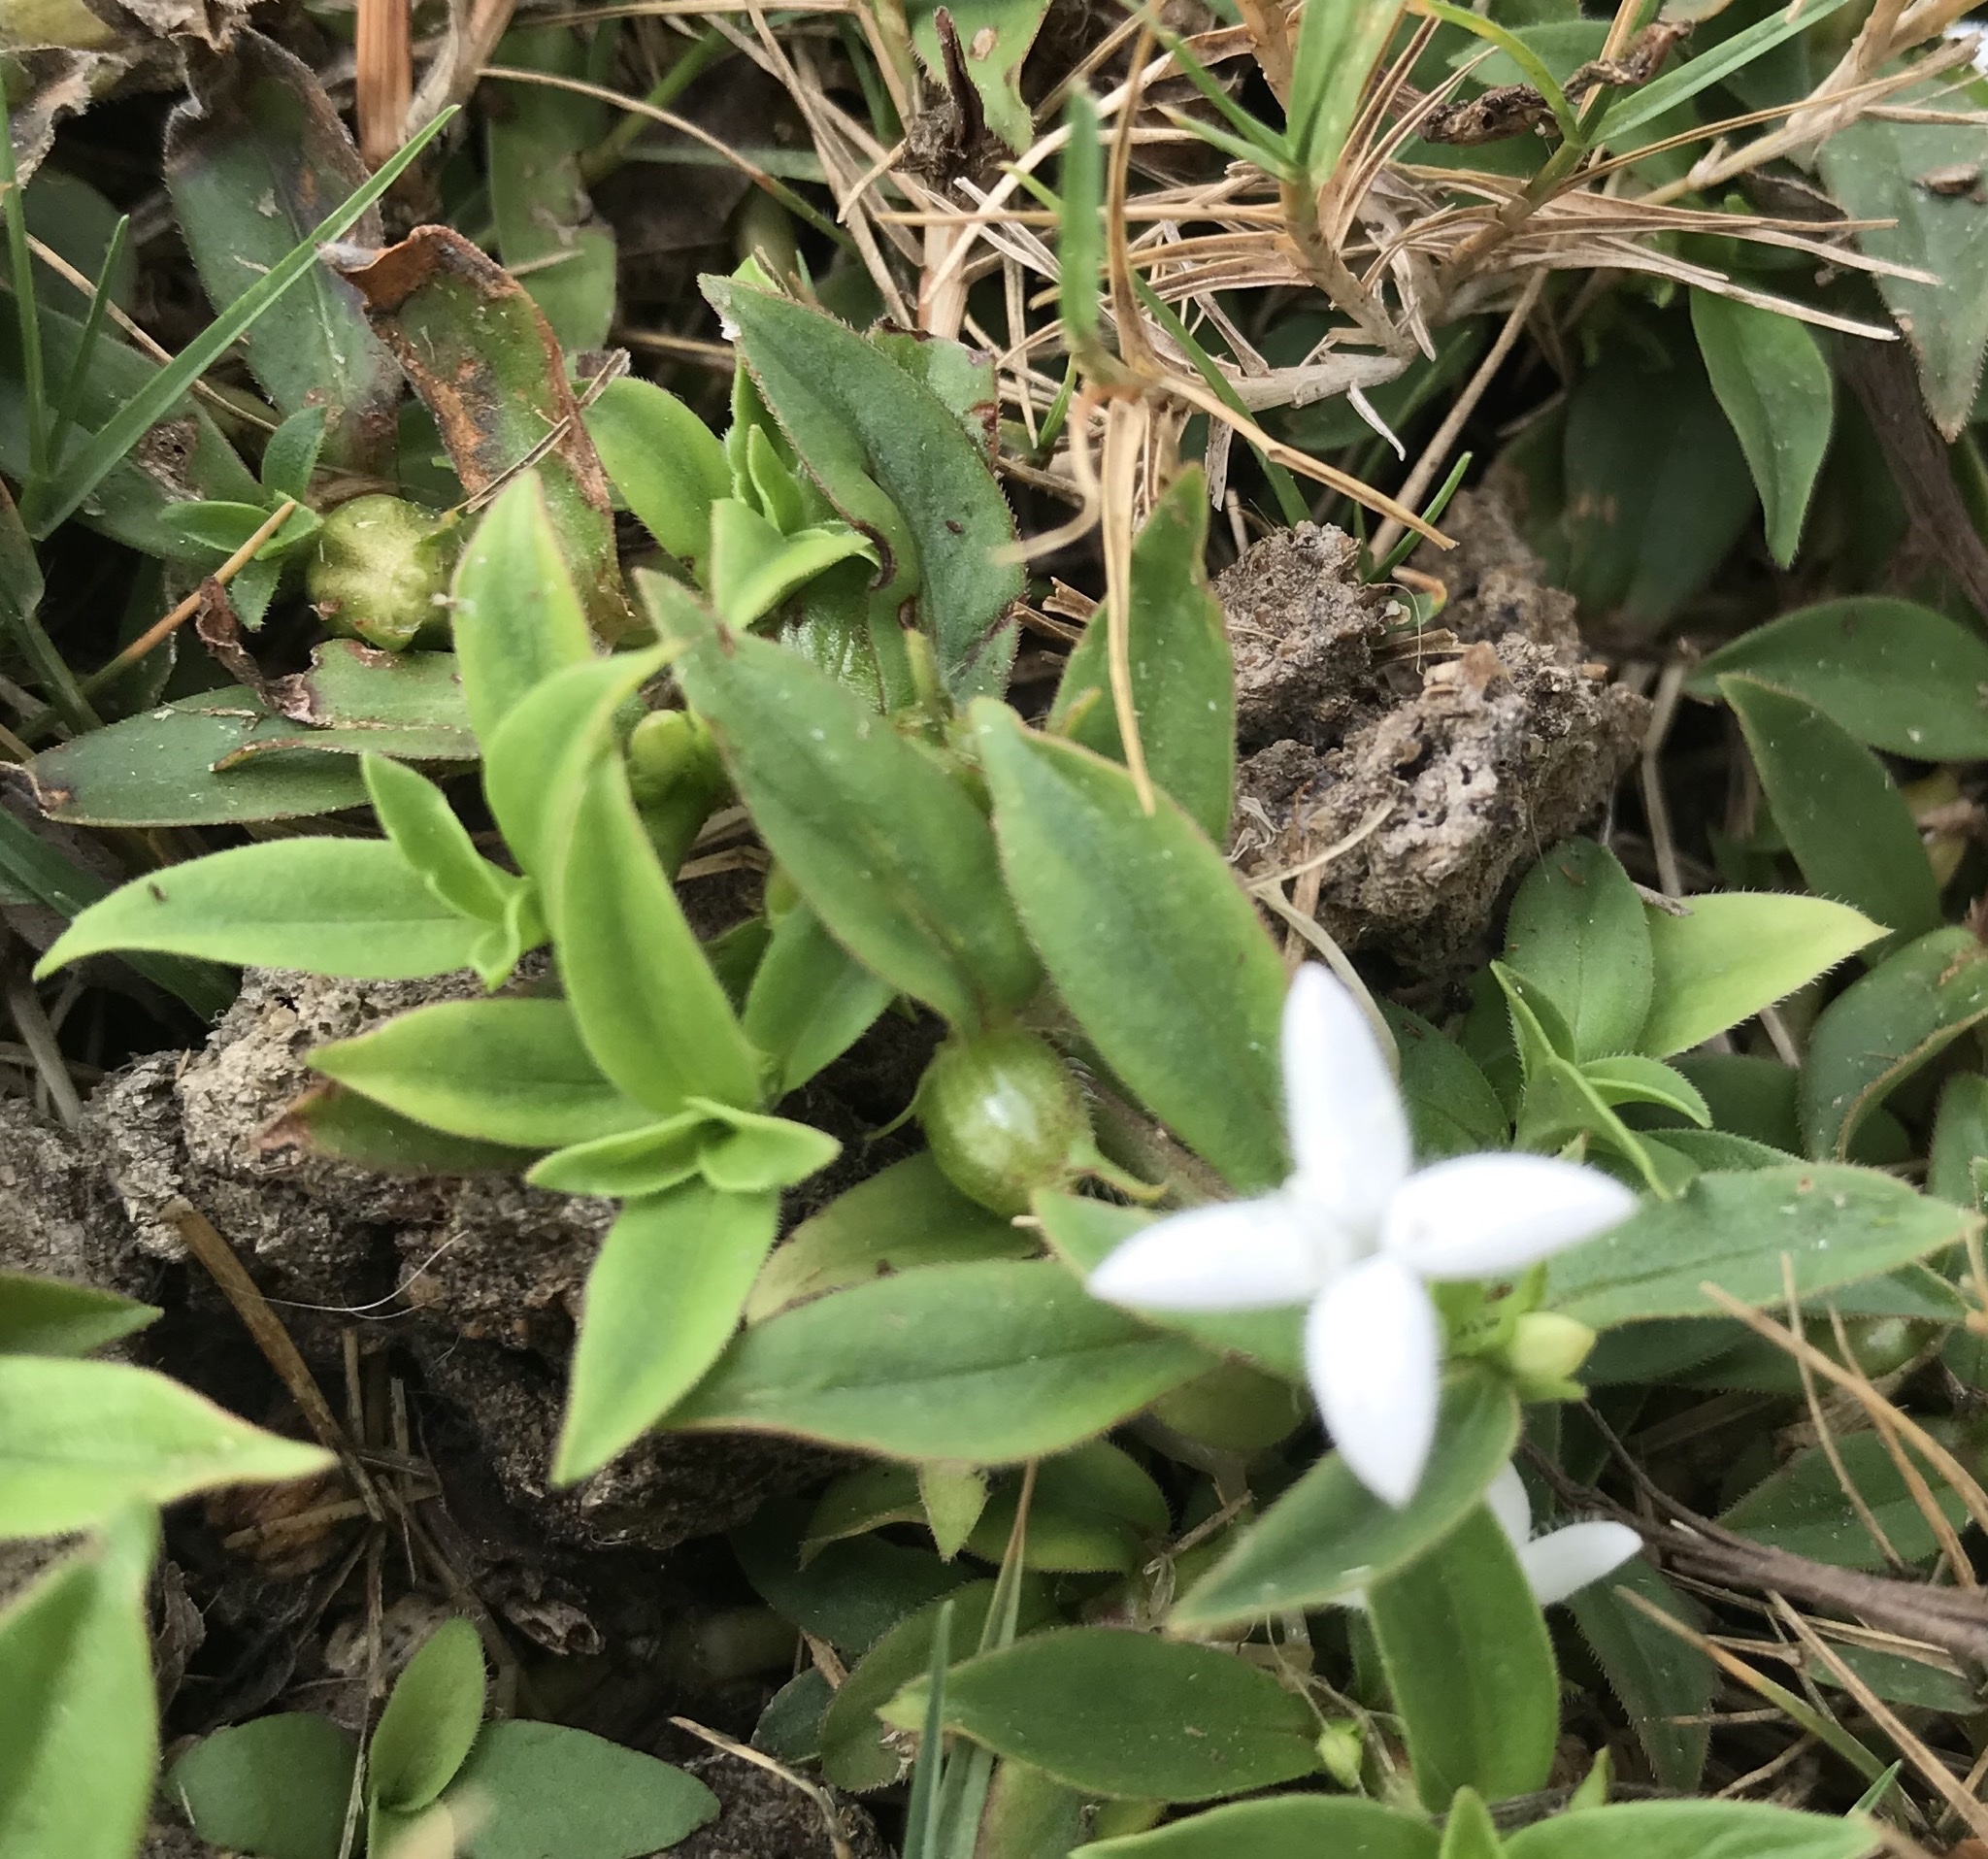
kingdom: Plantae
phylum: Tracheophyta
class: Magnoliopsida
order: Gentianales
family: Rubiaceae
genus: Diodia
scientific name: Diodia virginiana
